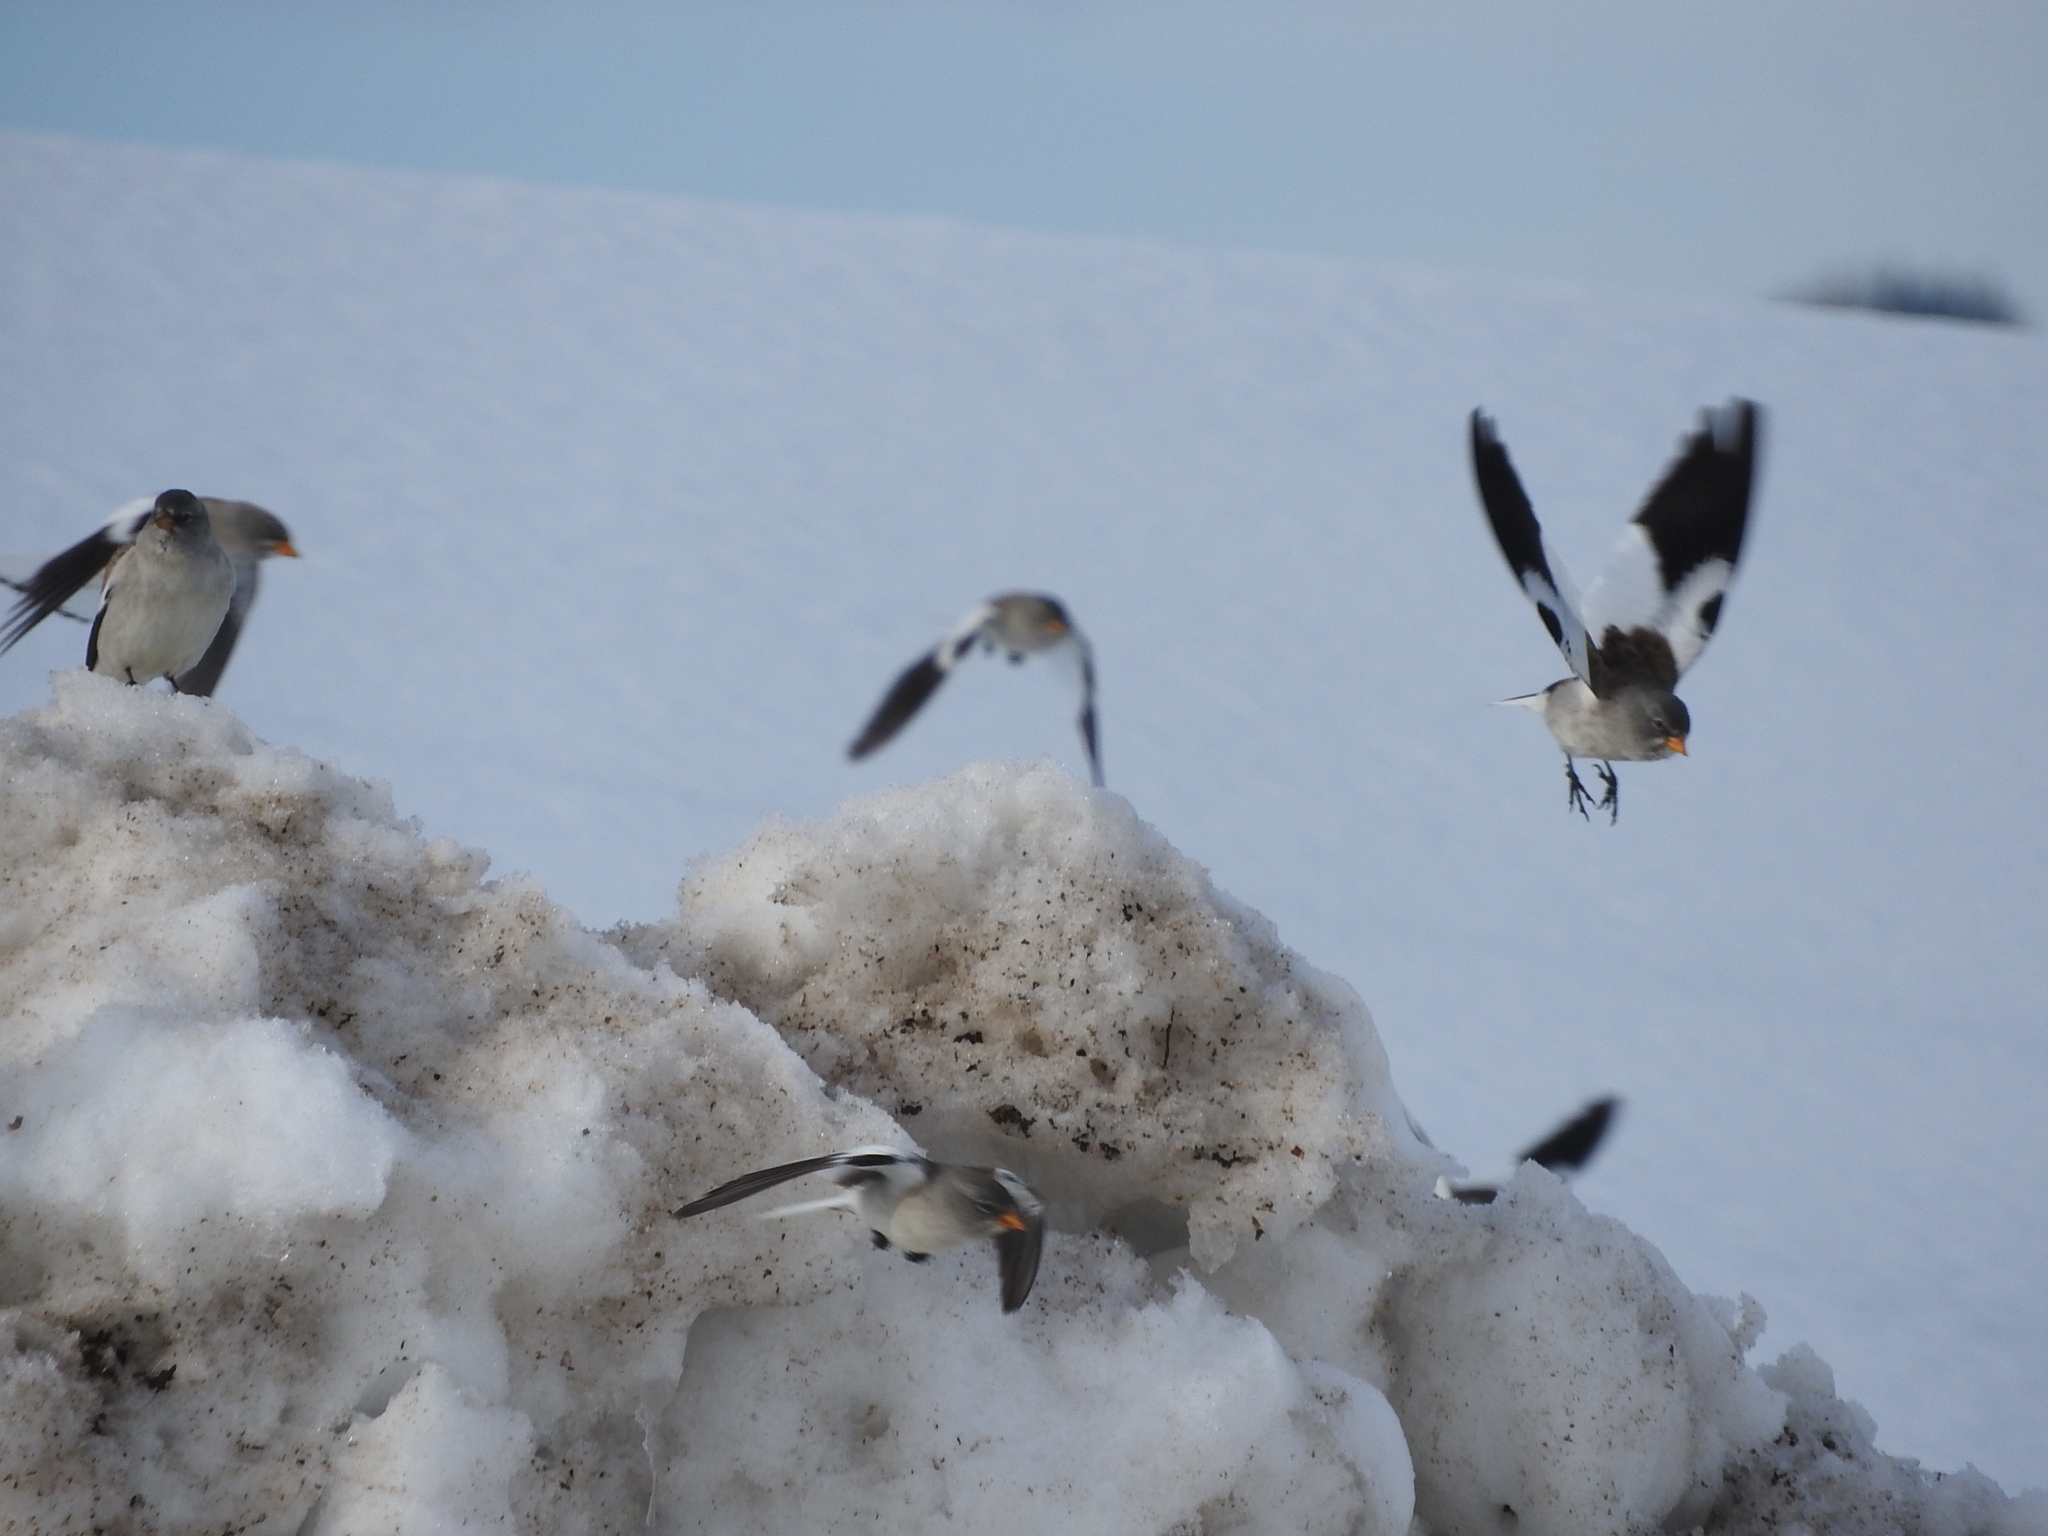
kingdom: Animalia
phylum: Chordata
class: Aves
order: Passeriformes
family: Passeridae
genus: Montifringilla
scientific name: Montifringilla nivalis
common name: White-winged snowfinch
